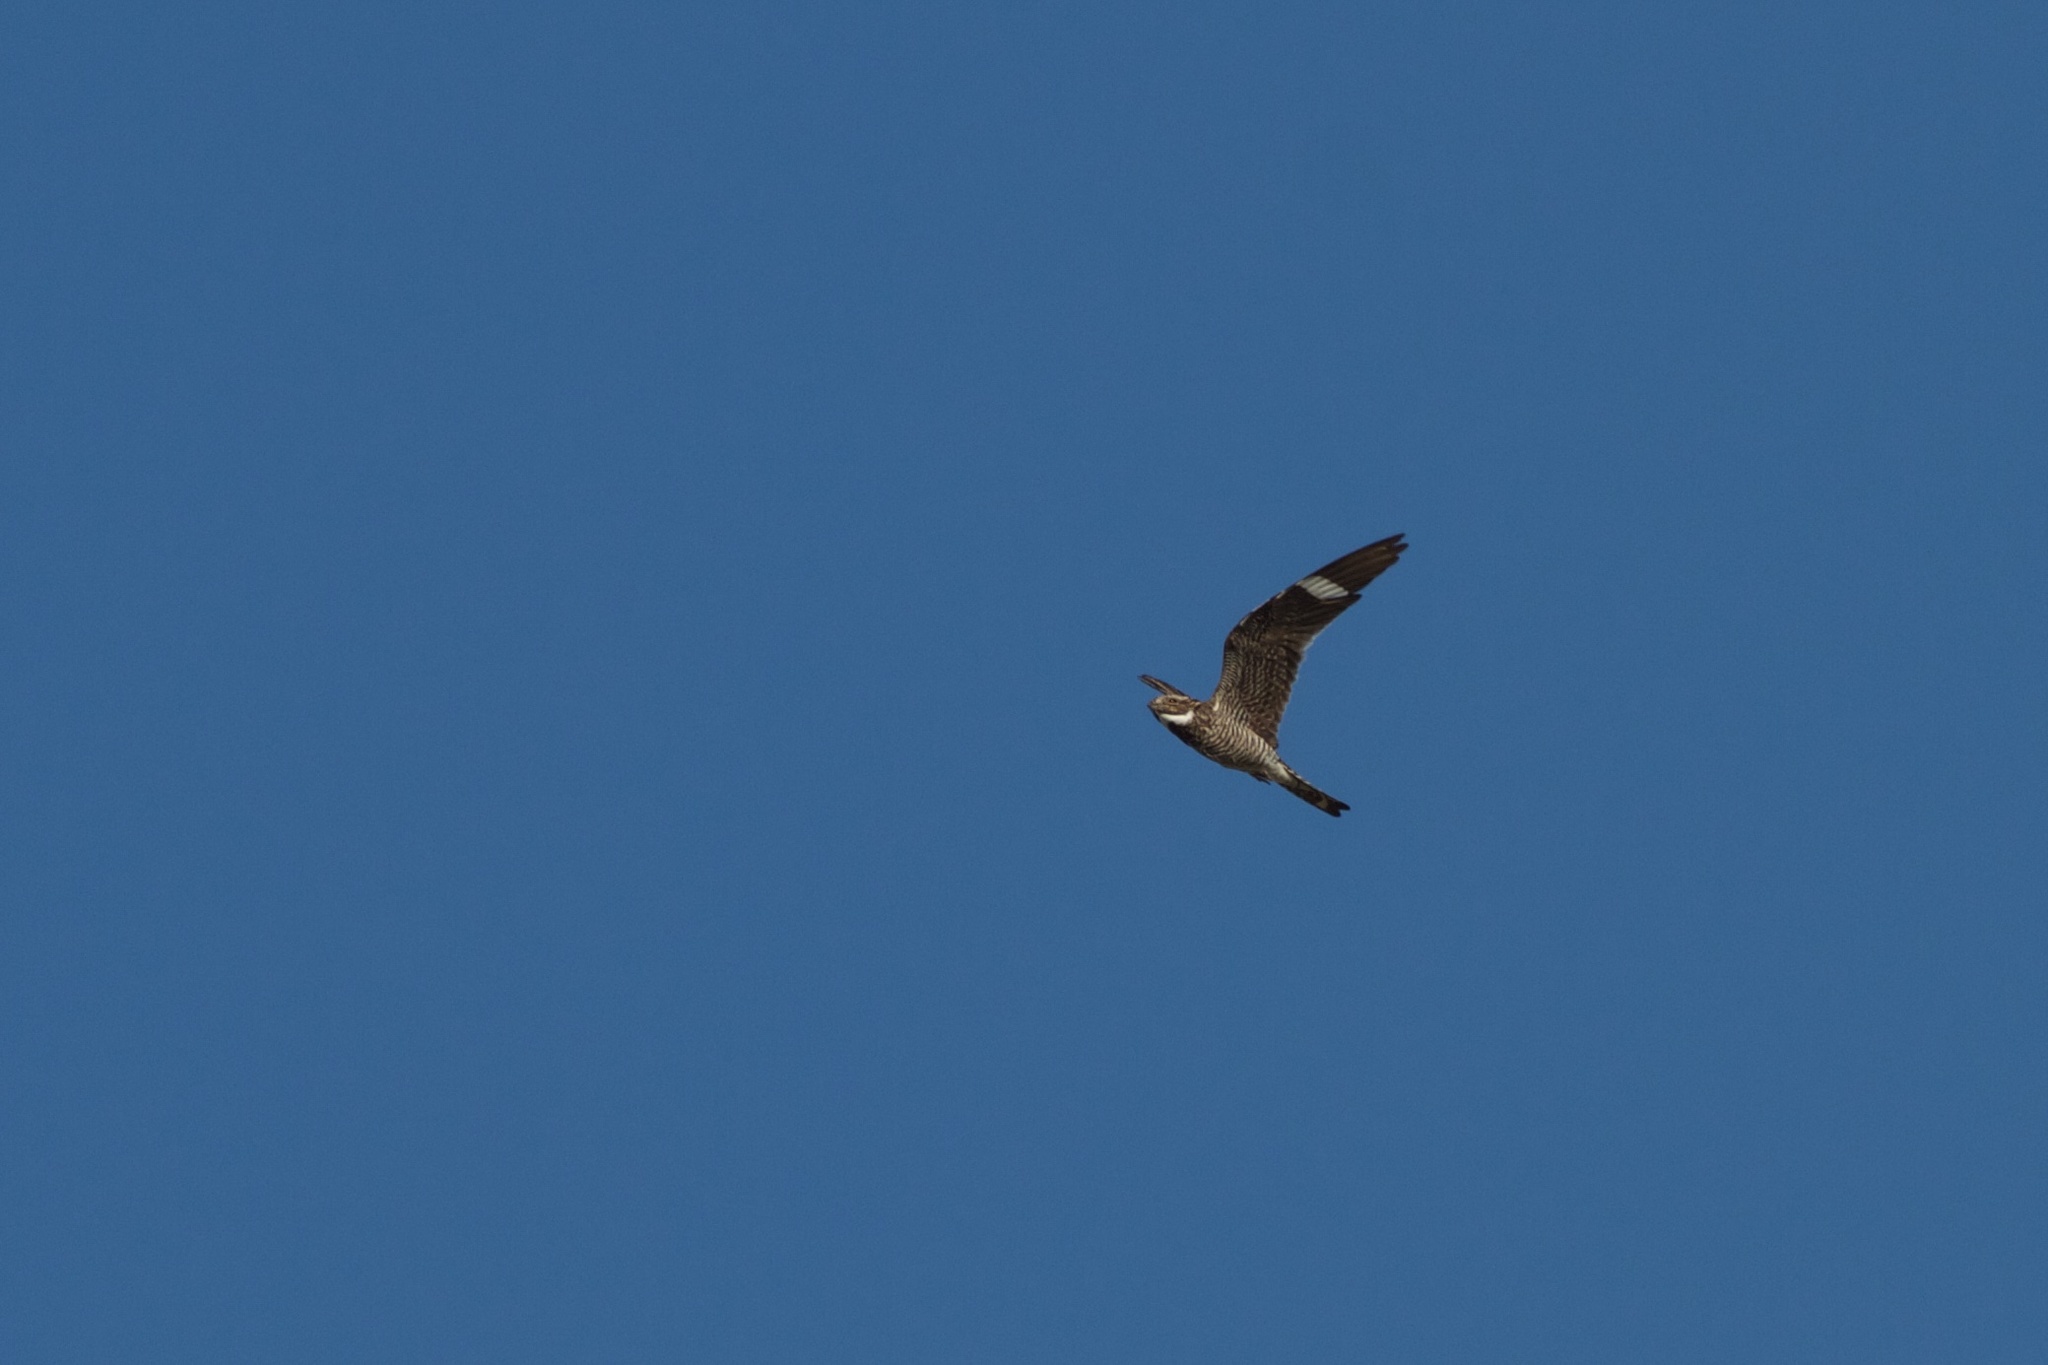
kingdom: Animalia
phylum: Chordata
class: Aves
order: Caprimulgiformes
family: Caprimulgidae
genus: Chordeiles
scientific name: Chordeiles minor
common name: Common nighthawk
